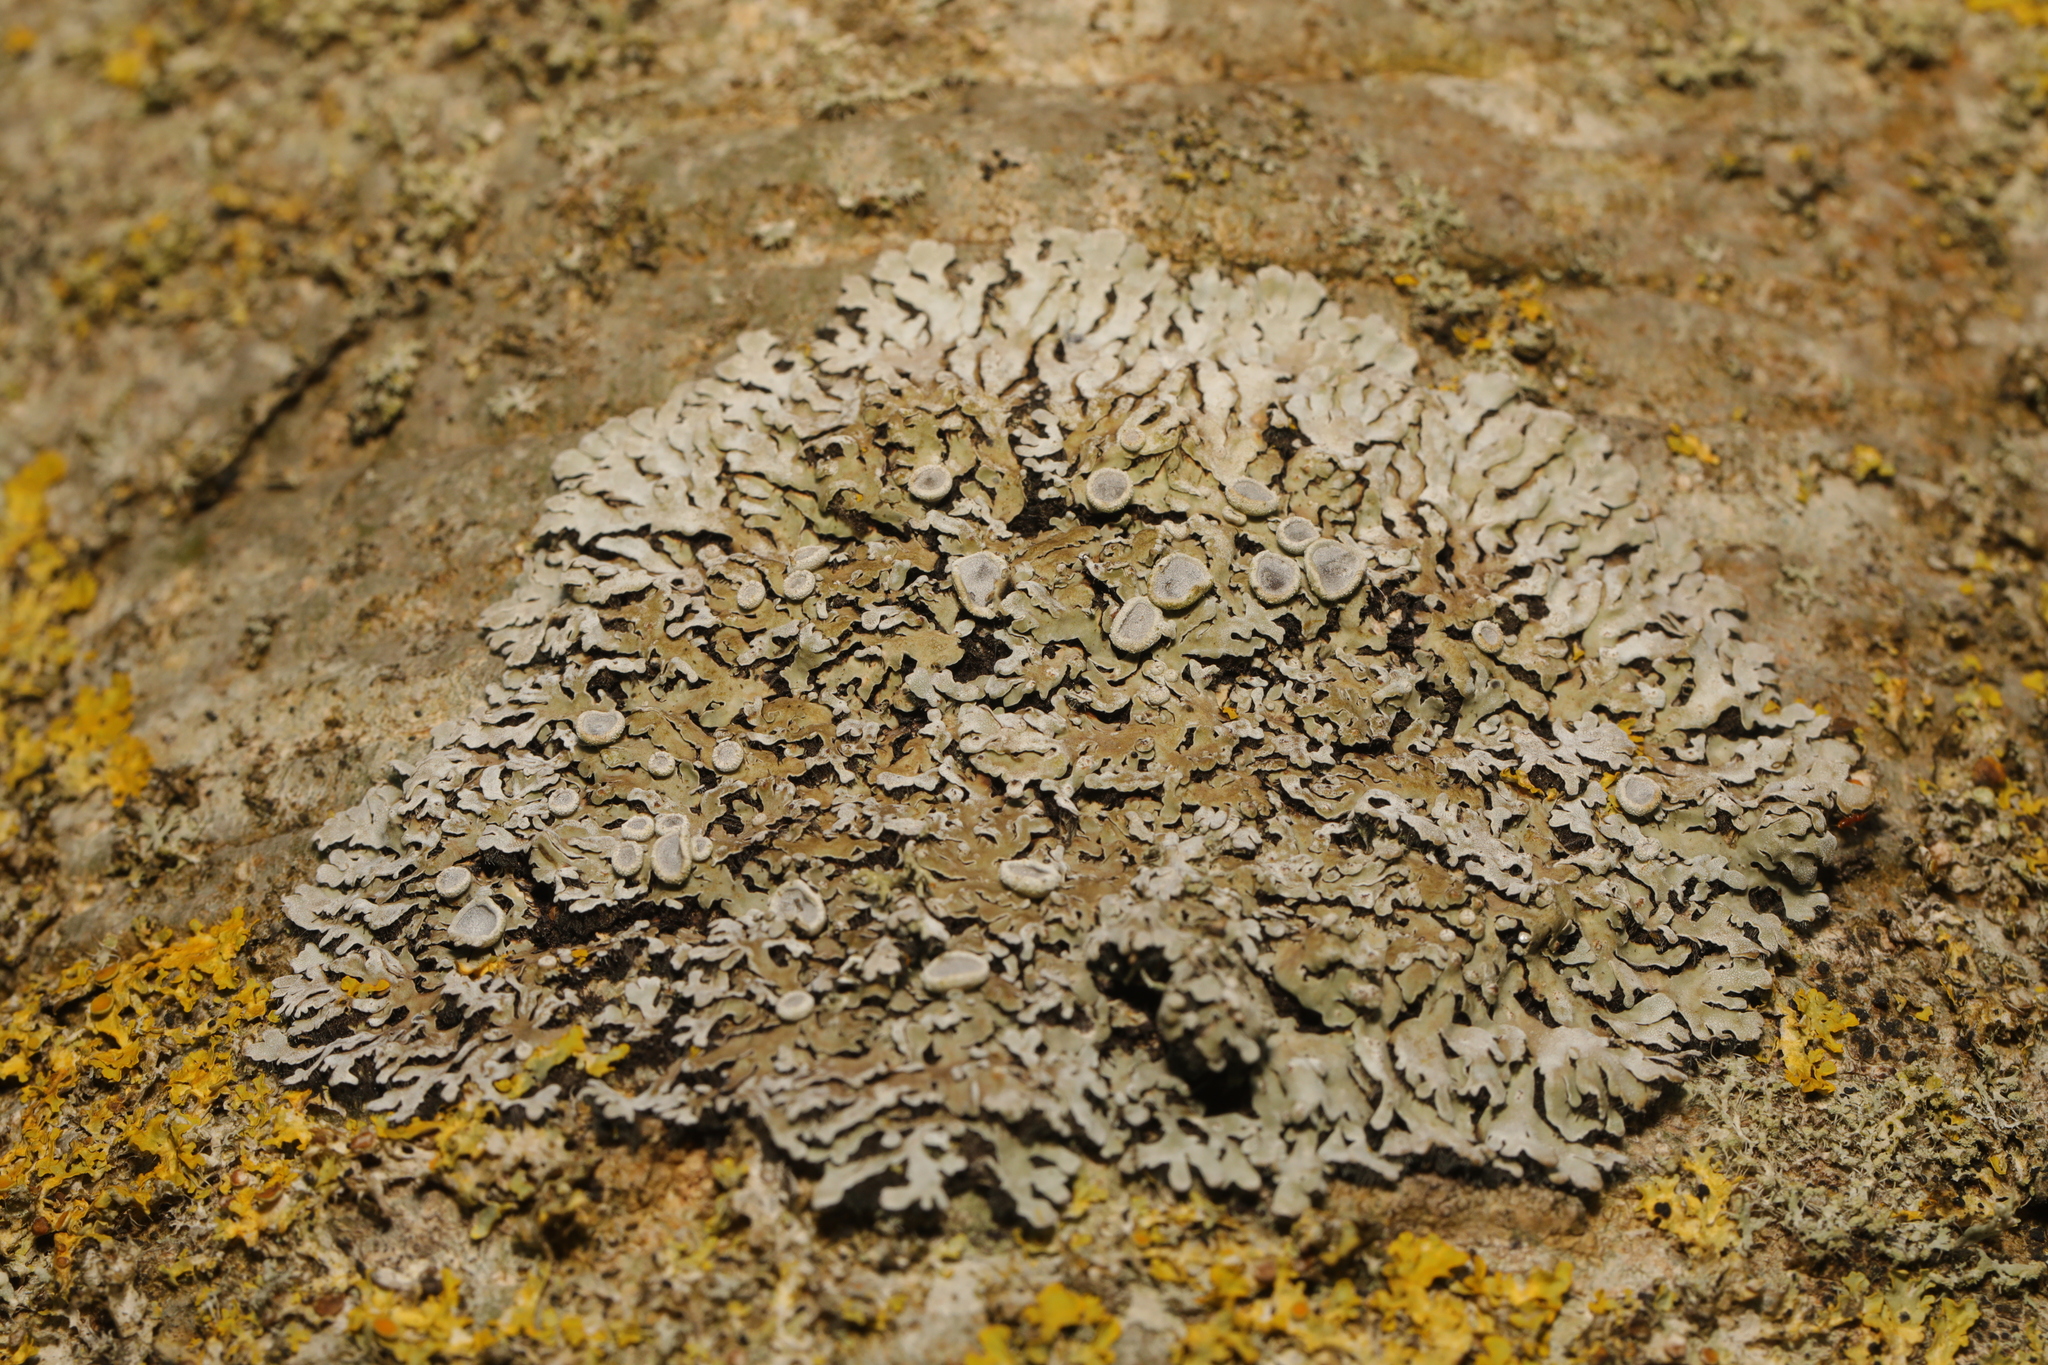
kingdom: Fungi
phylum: Ascomycota
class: Lecanoromycetes
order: Caliciales
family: Physciaceae
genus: Physconia
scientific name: Physconia distorta
